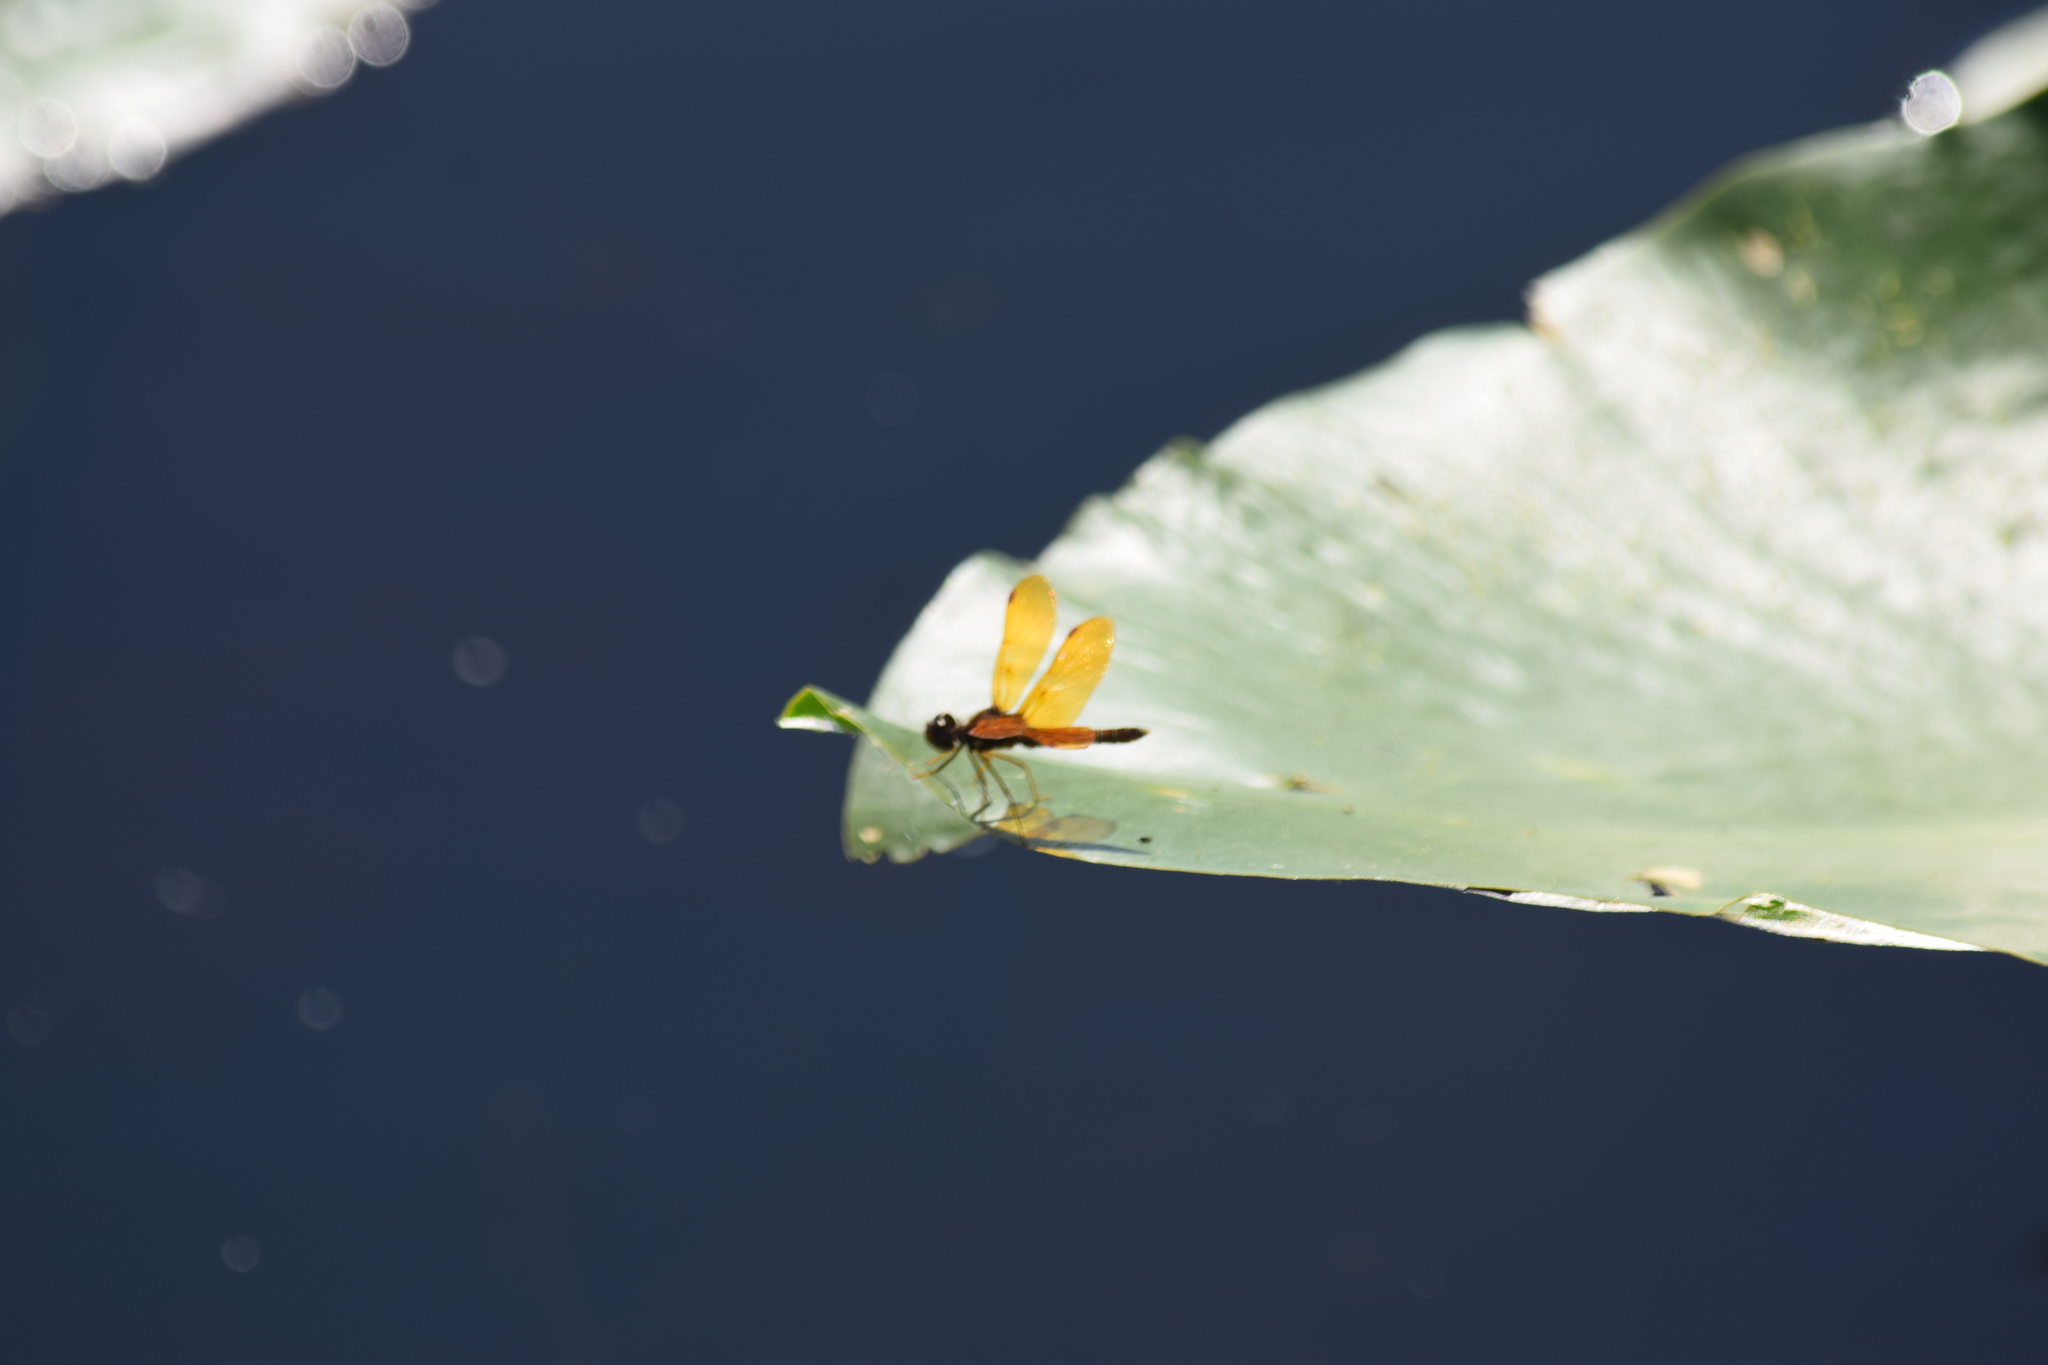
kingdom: Animalia
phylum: Arthropoda
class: Insecta
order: Odonata
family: Libellulidae
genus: Perithemis
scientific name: Perithemis tenera
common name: Eastern amberwing
